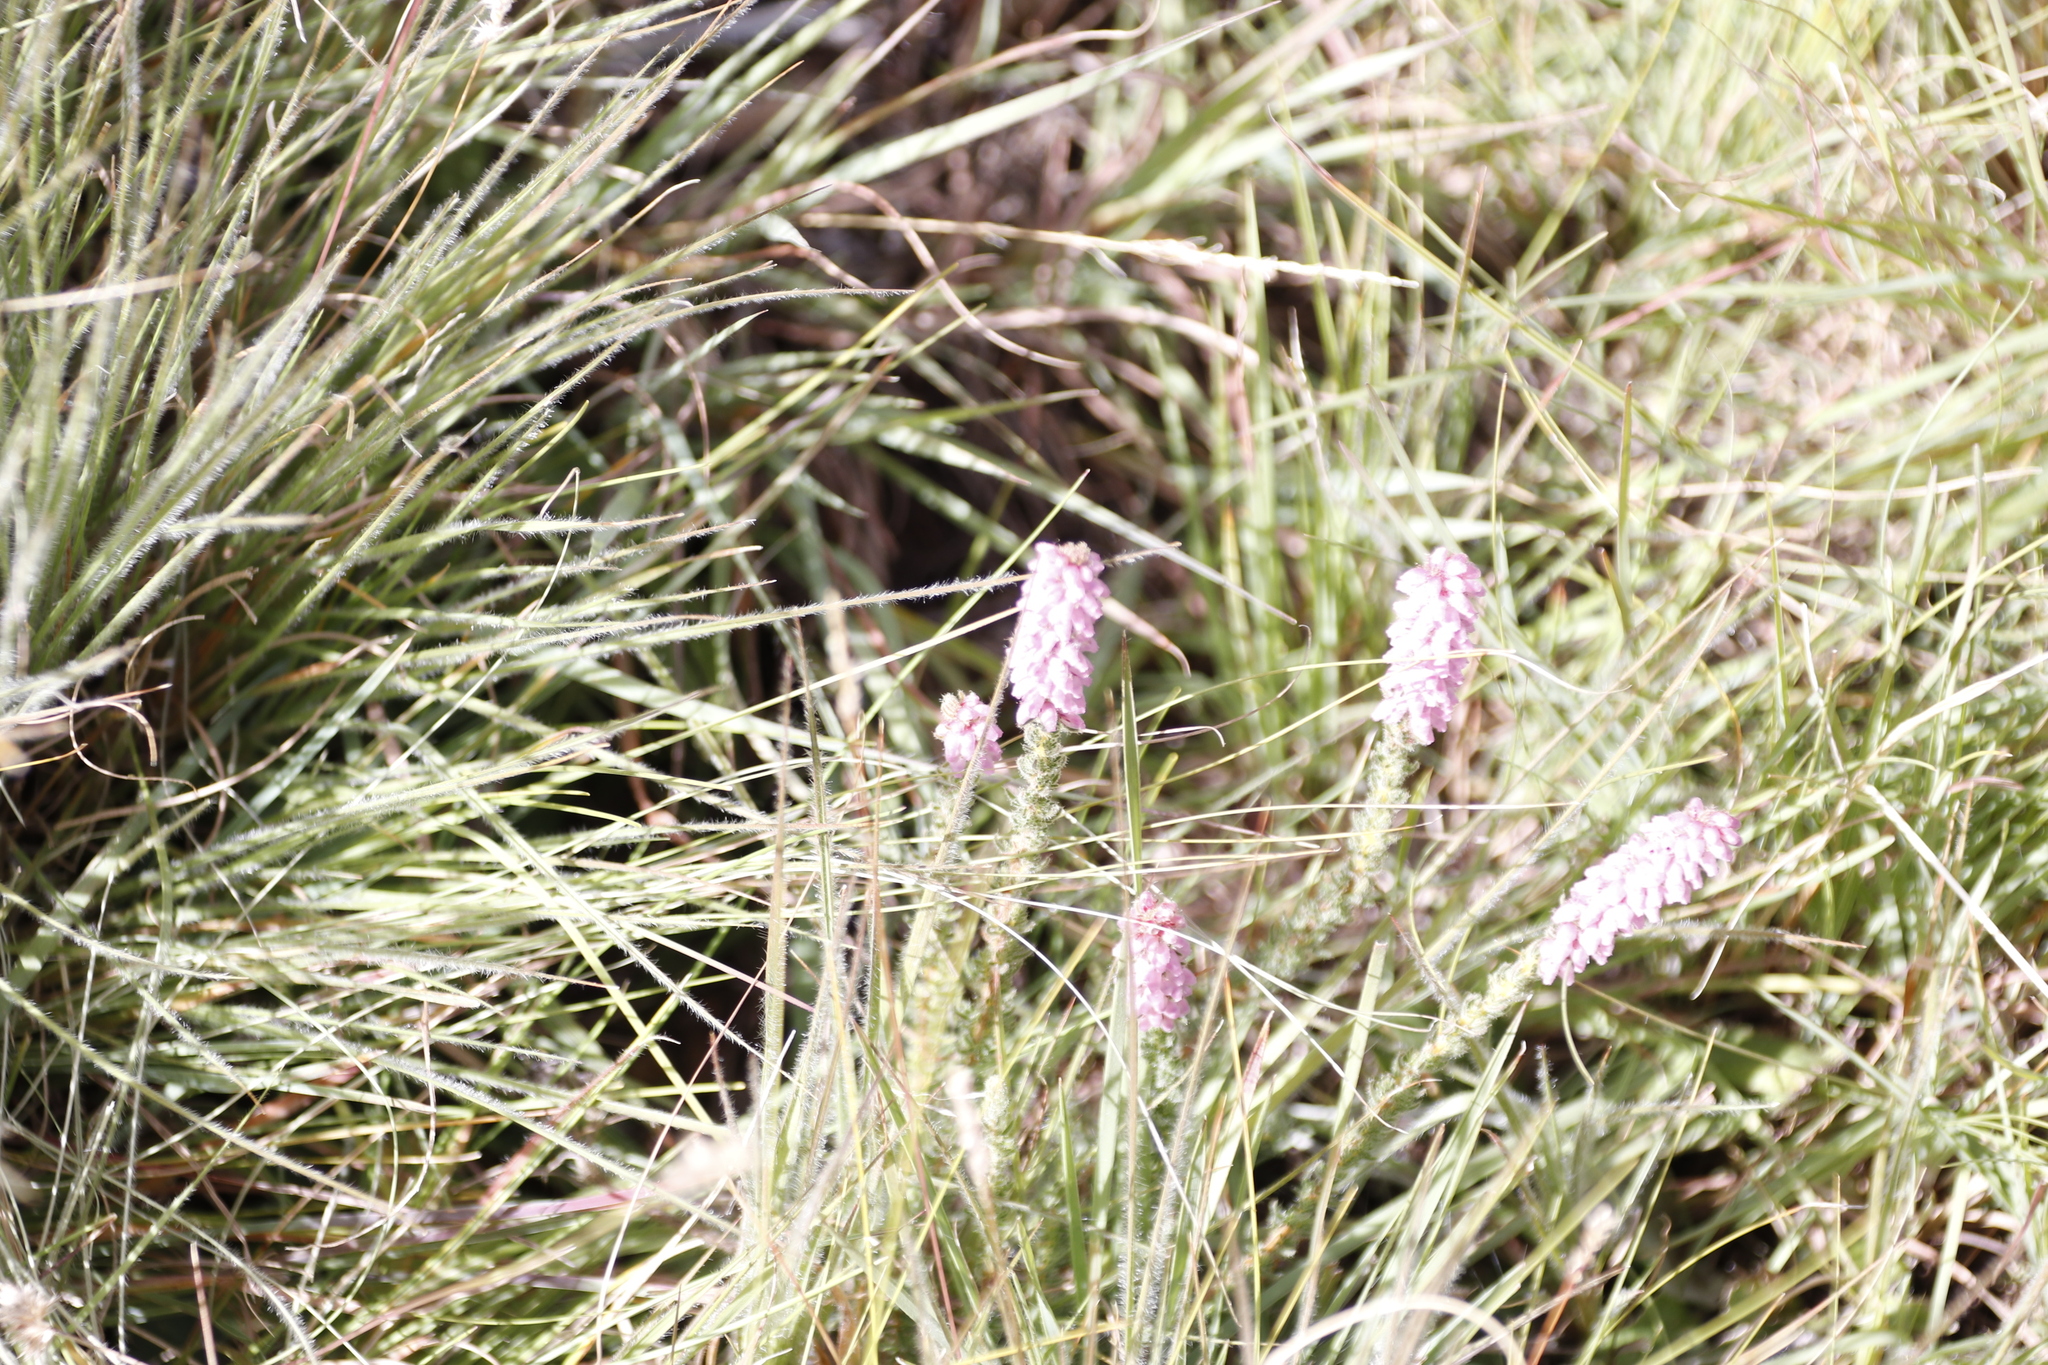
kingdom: Plantae
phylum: Tracheophyta
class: Magnoliopsida
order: Ericales
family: Ericaceae
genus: Erica
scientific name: Erica alopecurus
